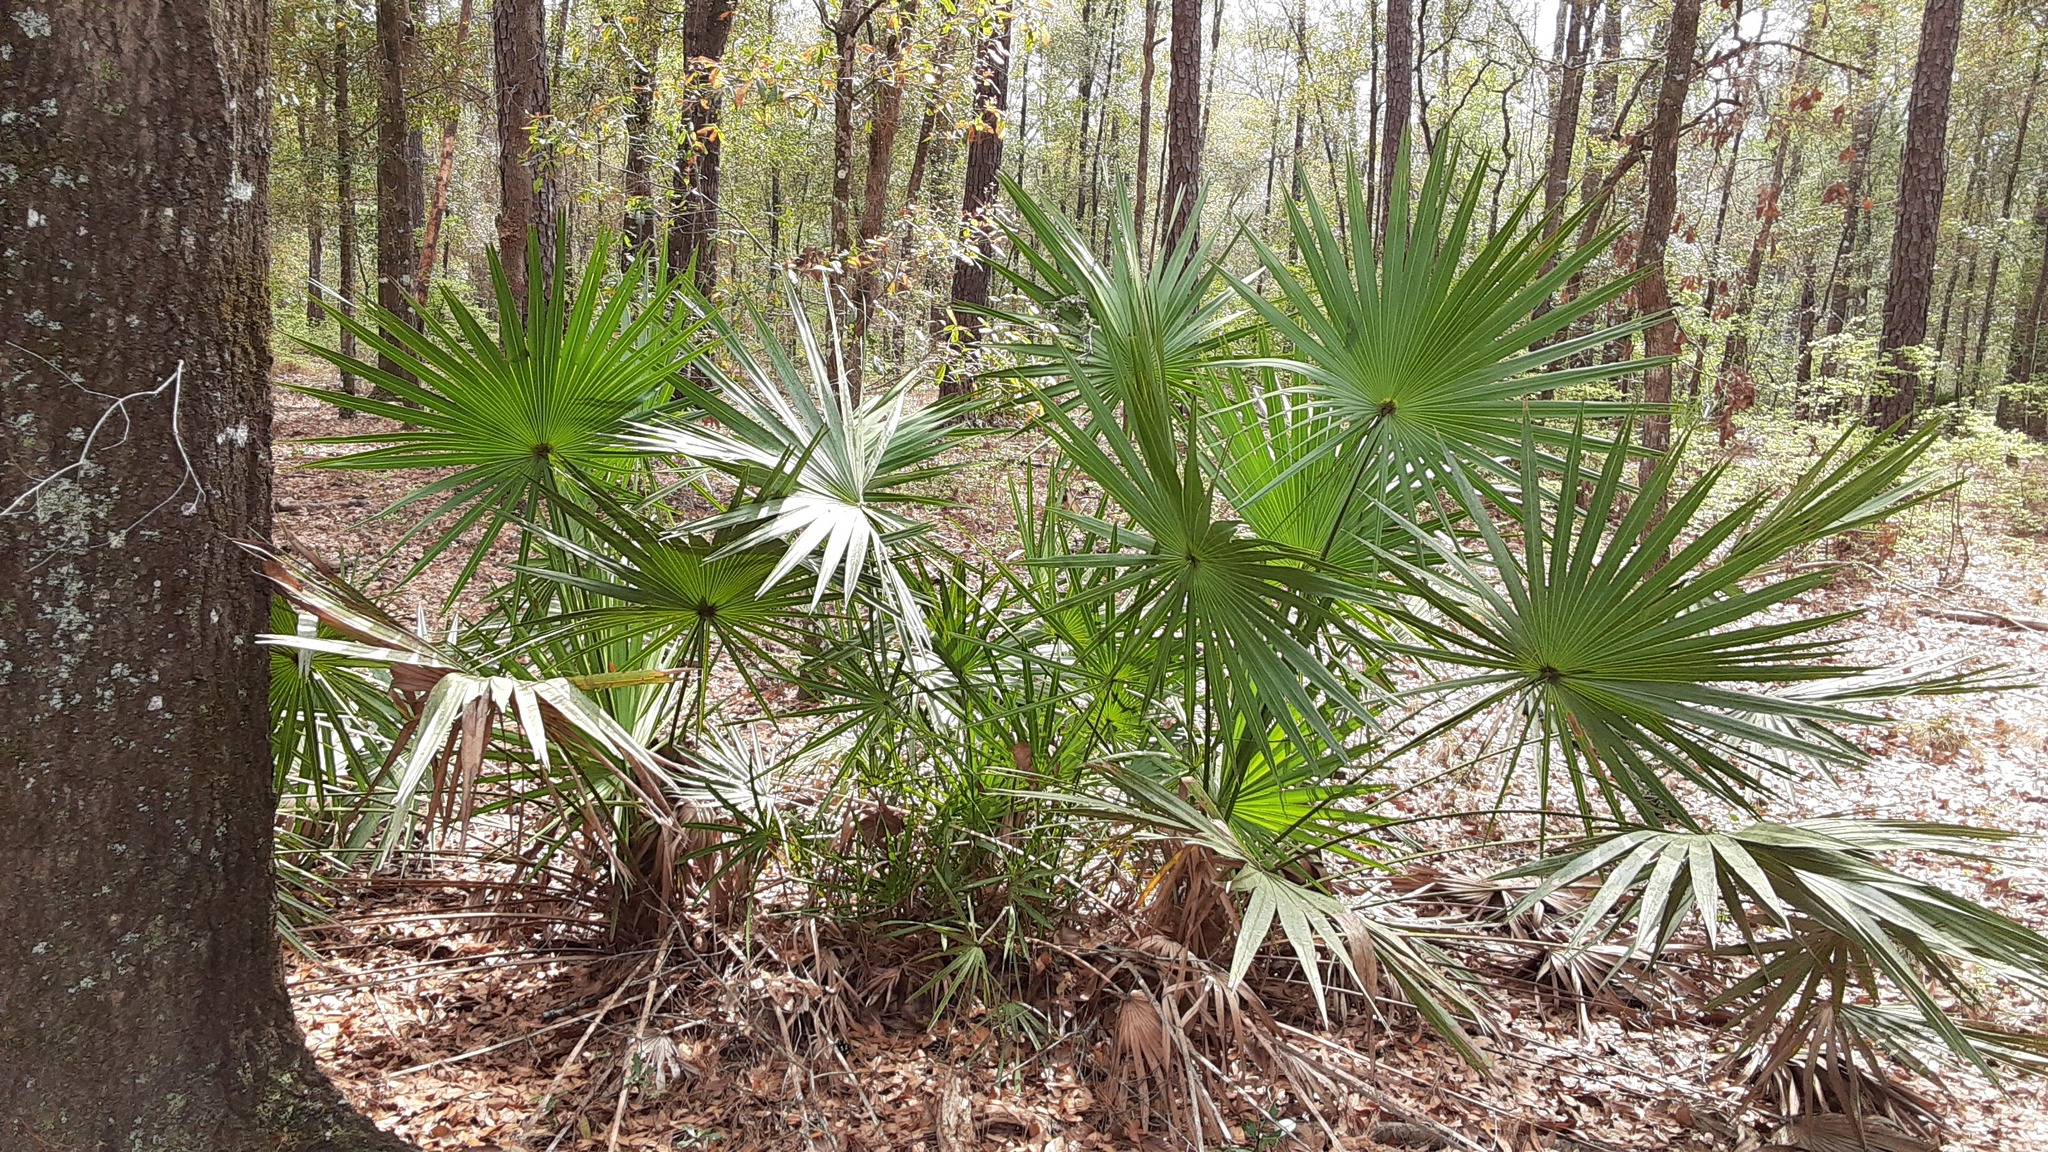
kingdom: Plantae
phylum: Tracheophyta
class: Liliopsida
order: Arecales
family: Arecaceae
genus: Serenoa
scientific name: Serenoa repens
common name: Saw-palmetto
